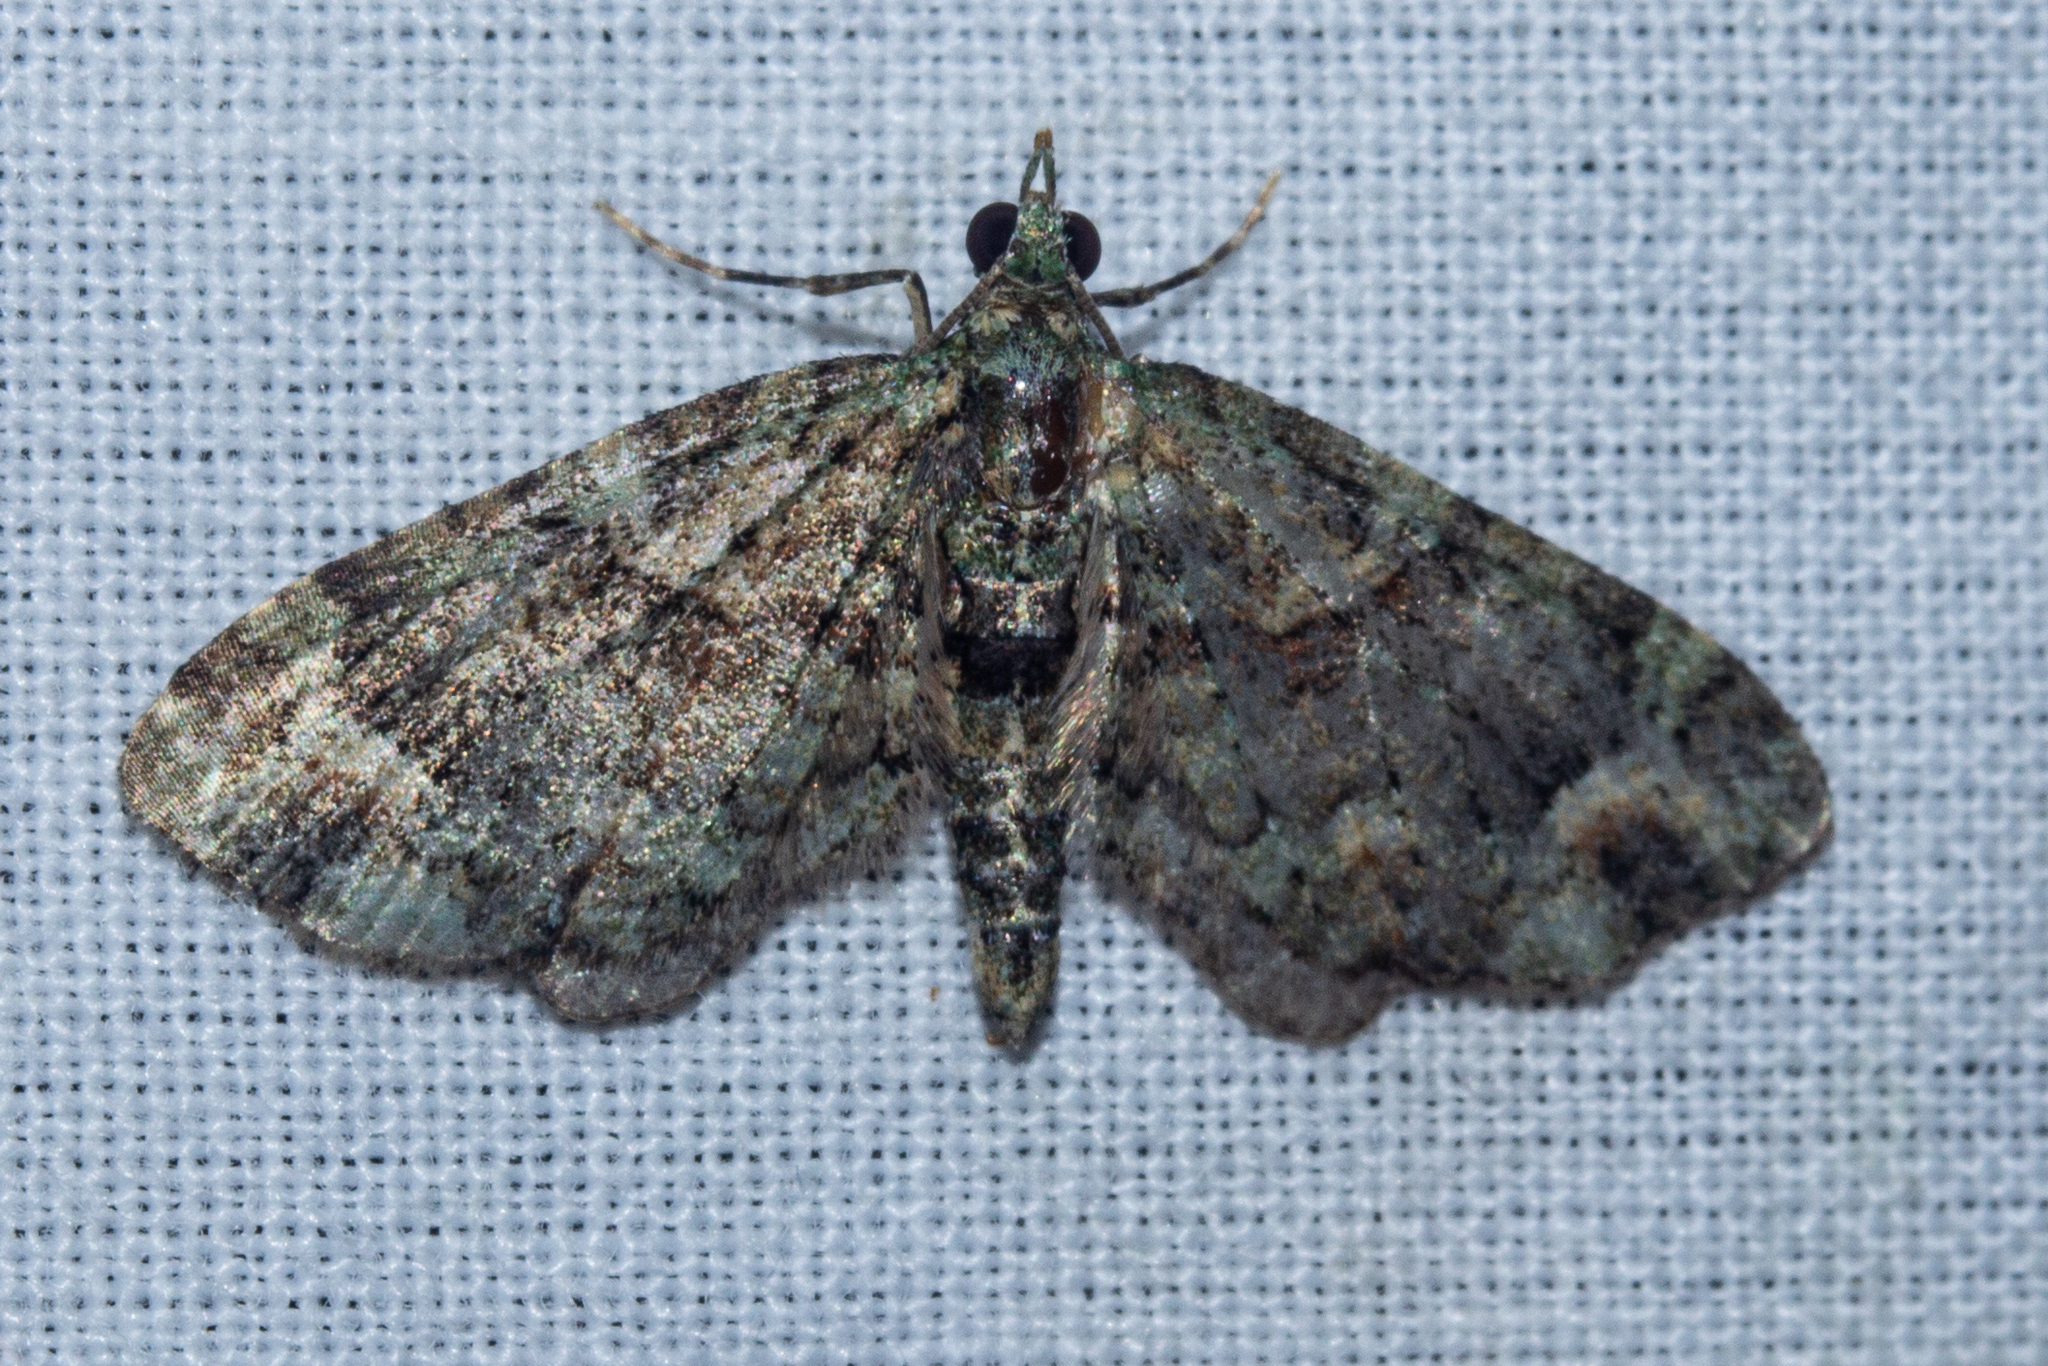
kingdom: Animalia
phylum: Arthropoda
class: Insecta
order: Lepidoptera
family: Geometridae
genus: Idaea
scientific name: Idaea mutanda
